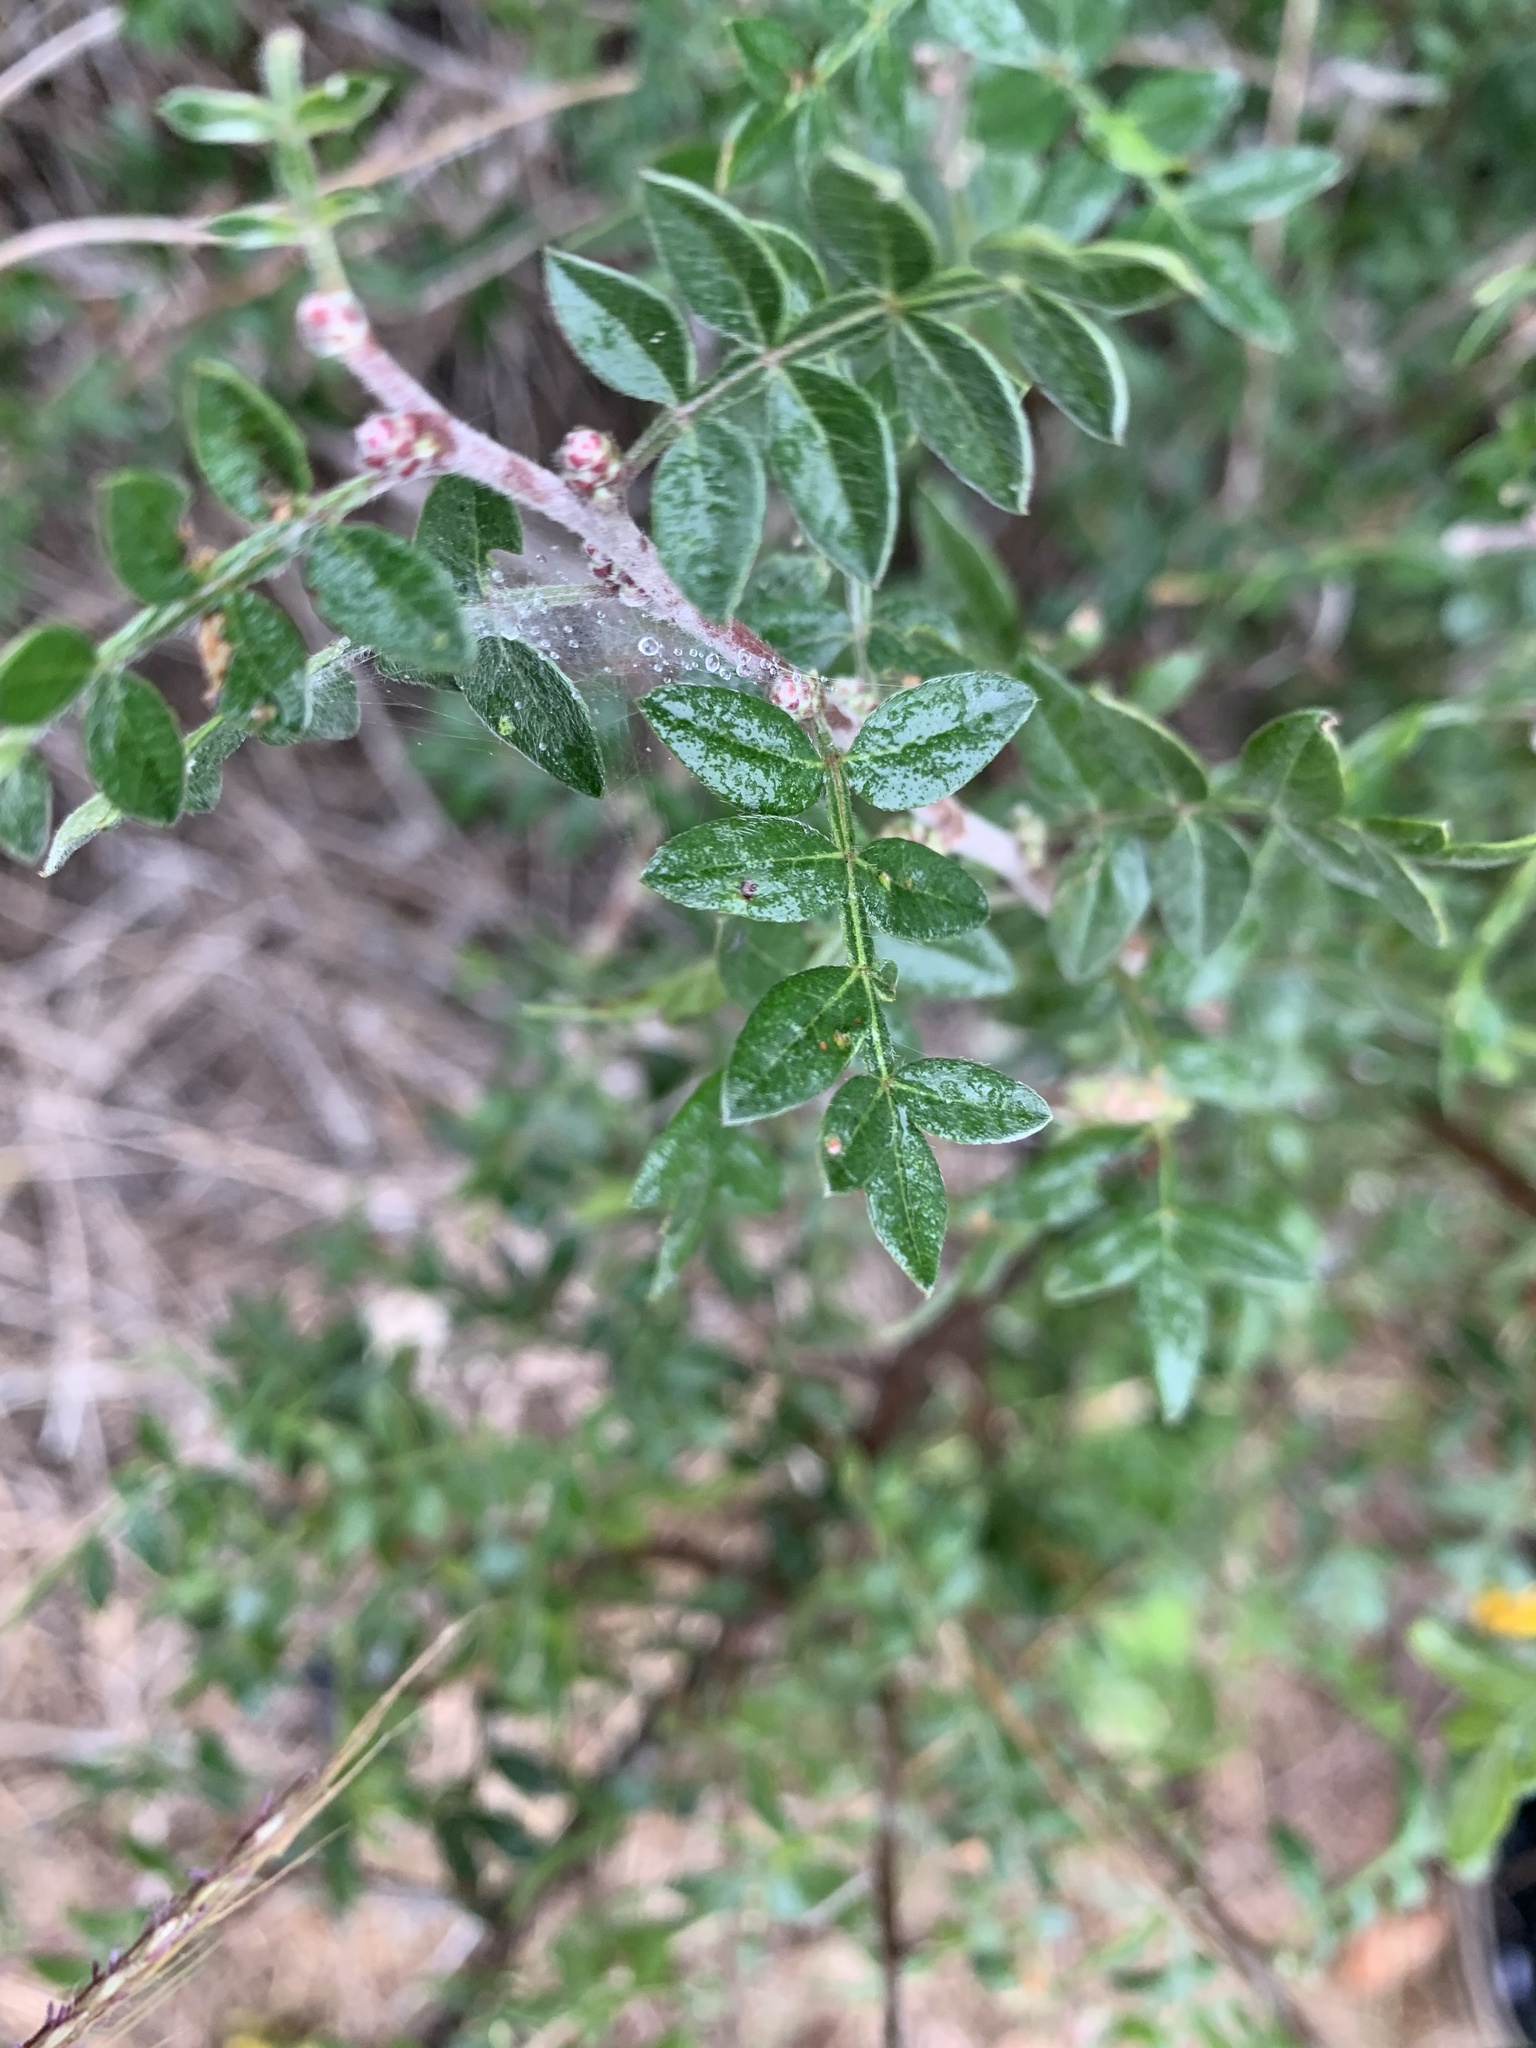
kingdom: Plantae
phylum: Tracheophyta
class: Magnoliopsida
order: Sapindales
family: Anacardiaceae
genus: Rhus
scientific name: Rhus microphylla
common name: Desert sumac
